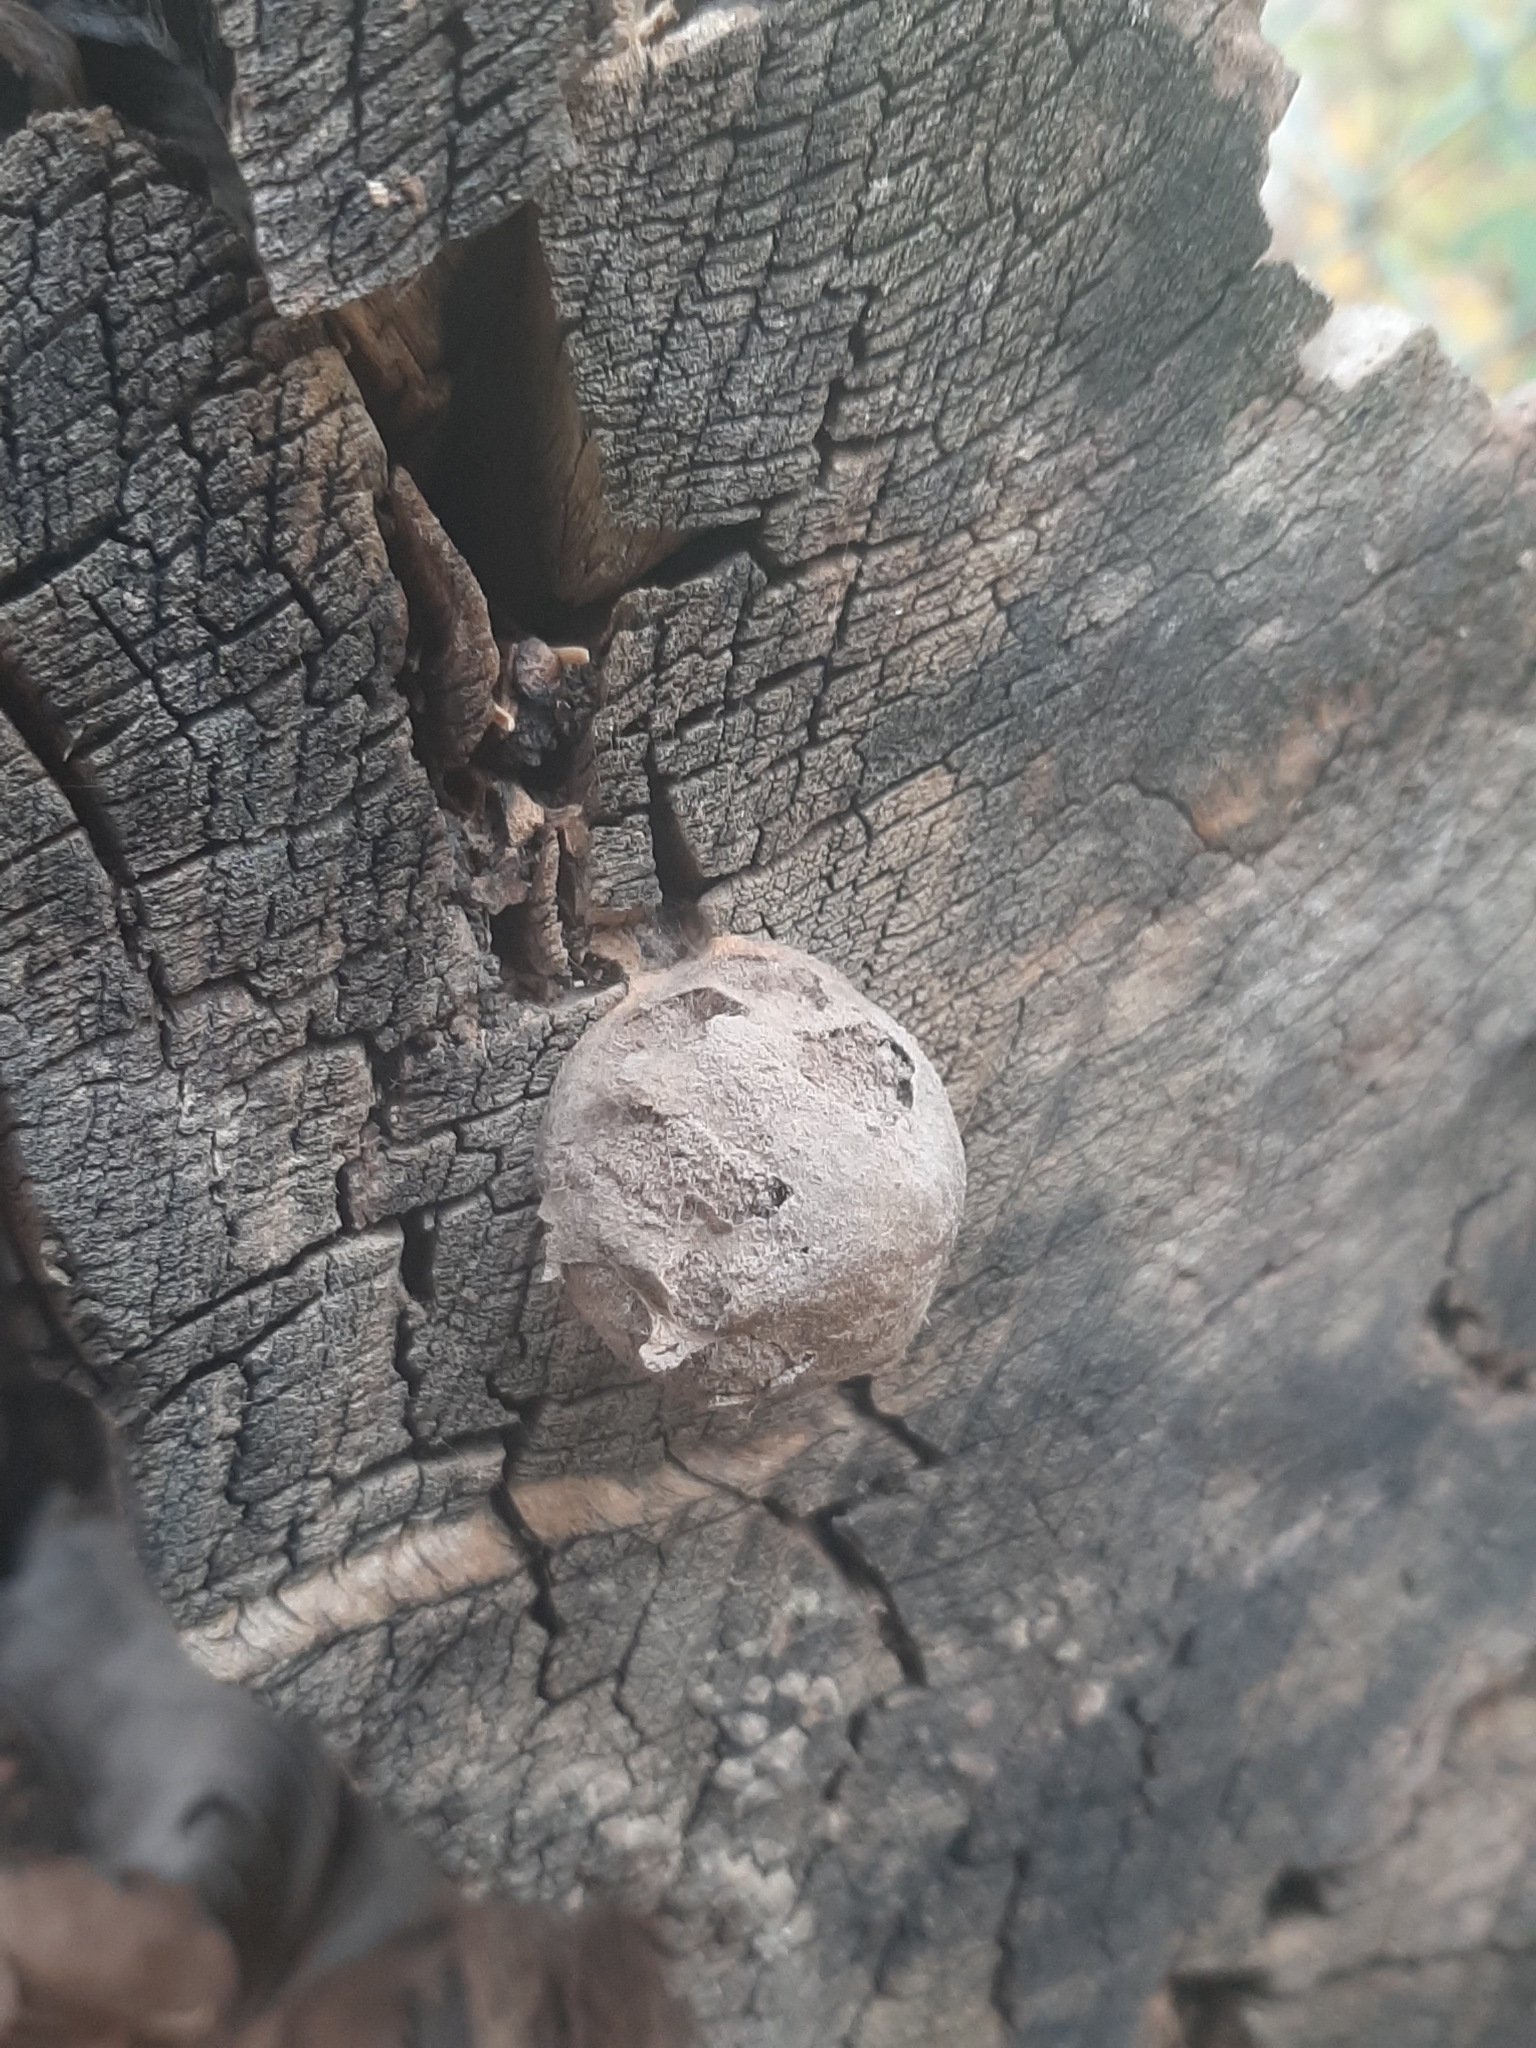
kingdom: Protozoa
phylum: Mycetozoa
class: Myxomycetes
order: Cribrariales
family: Tubiferaceae
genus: Reticularia
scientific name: Reticularia lycoperdon
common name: False puffball
